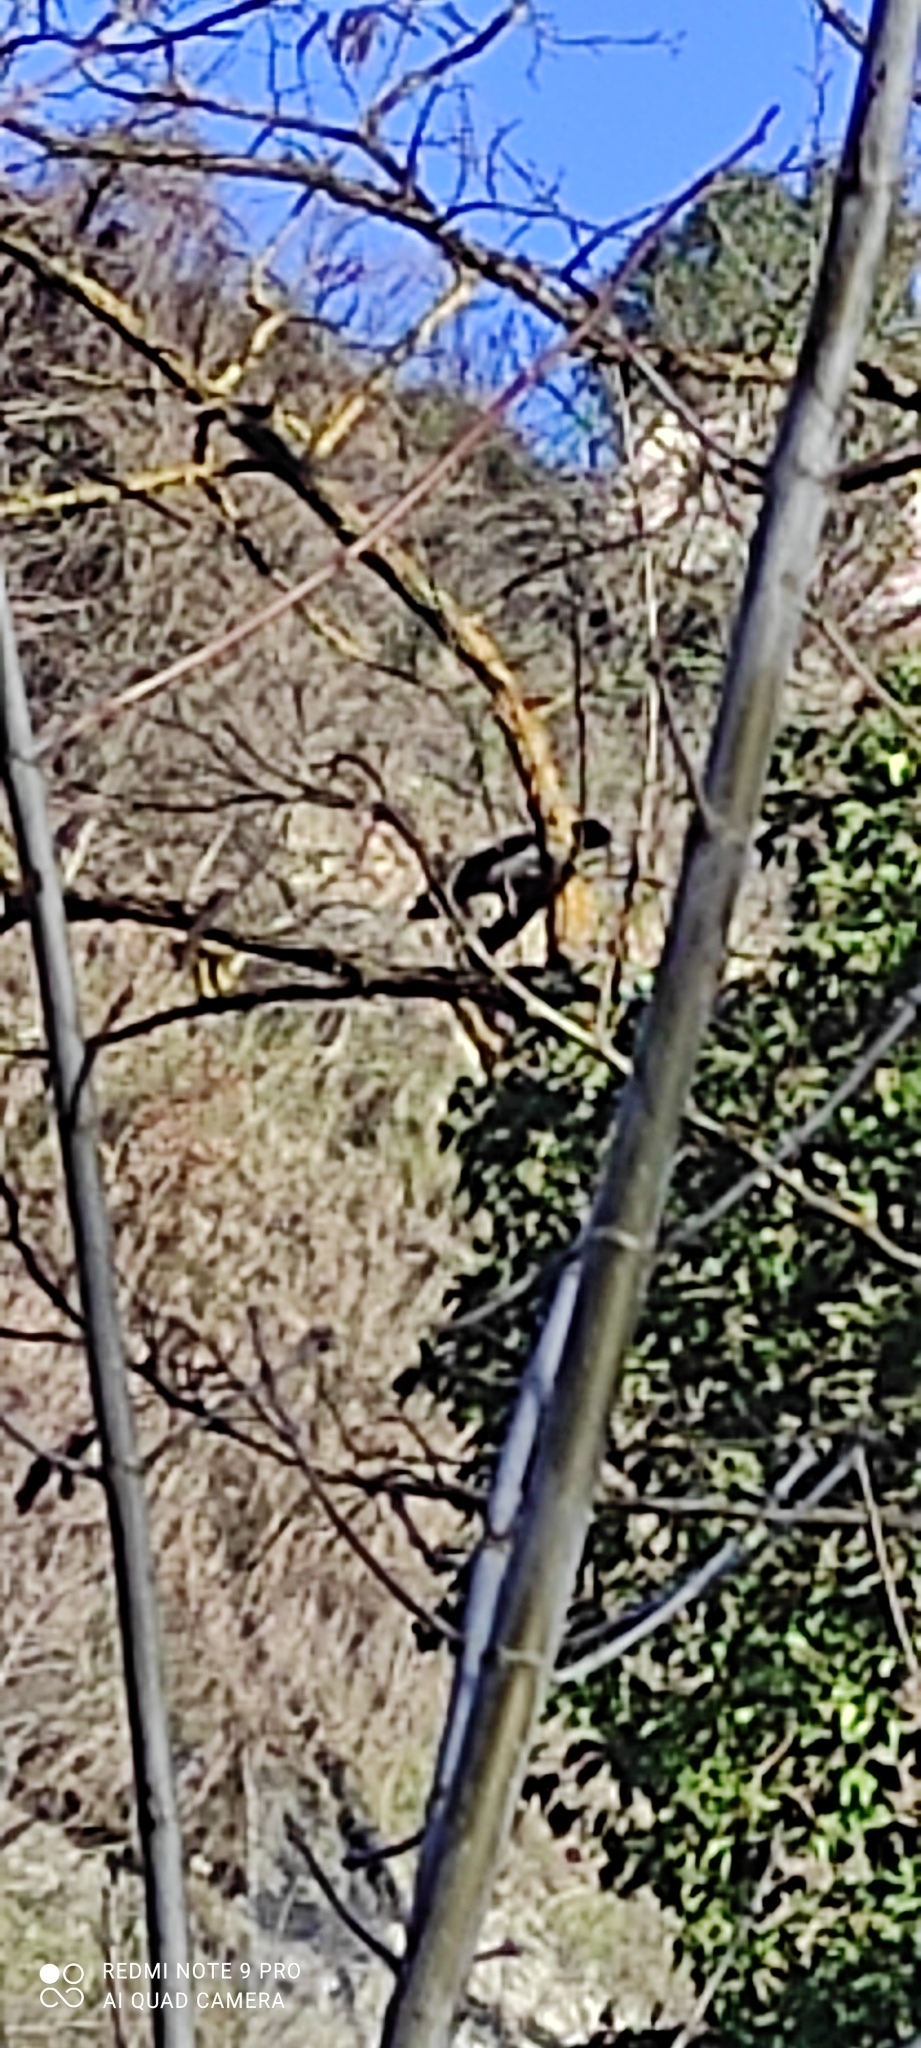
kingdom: Animalia
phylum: Chordata
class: Aves
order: Passeriformes
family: Corvidae
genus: Corvus
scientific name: Corvus cornix
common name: Hooded crow
